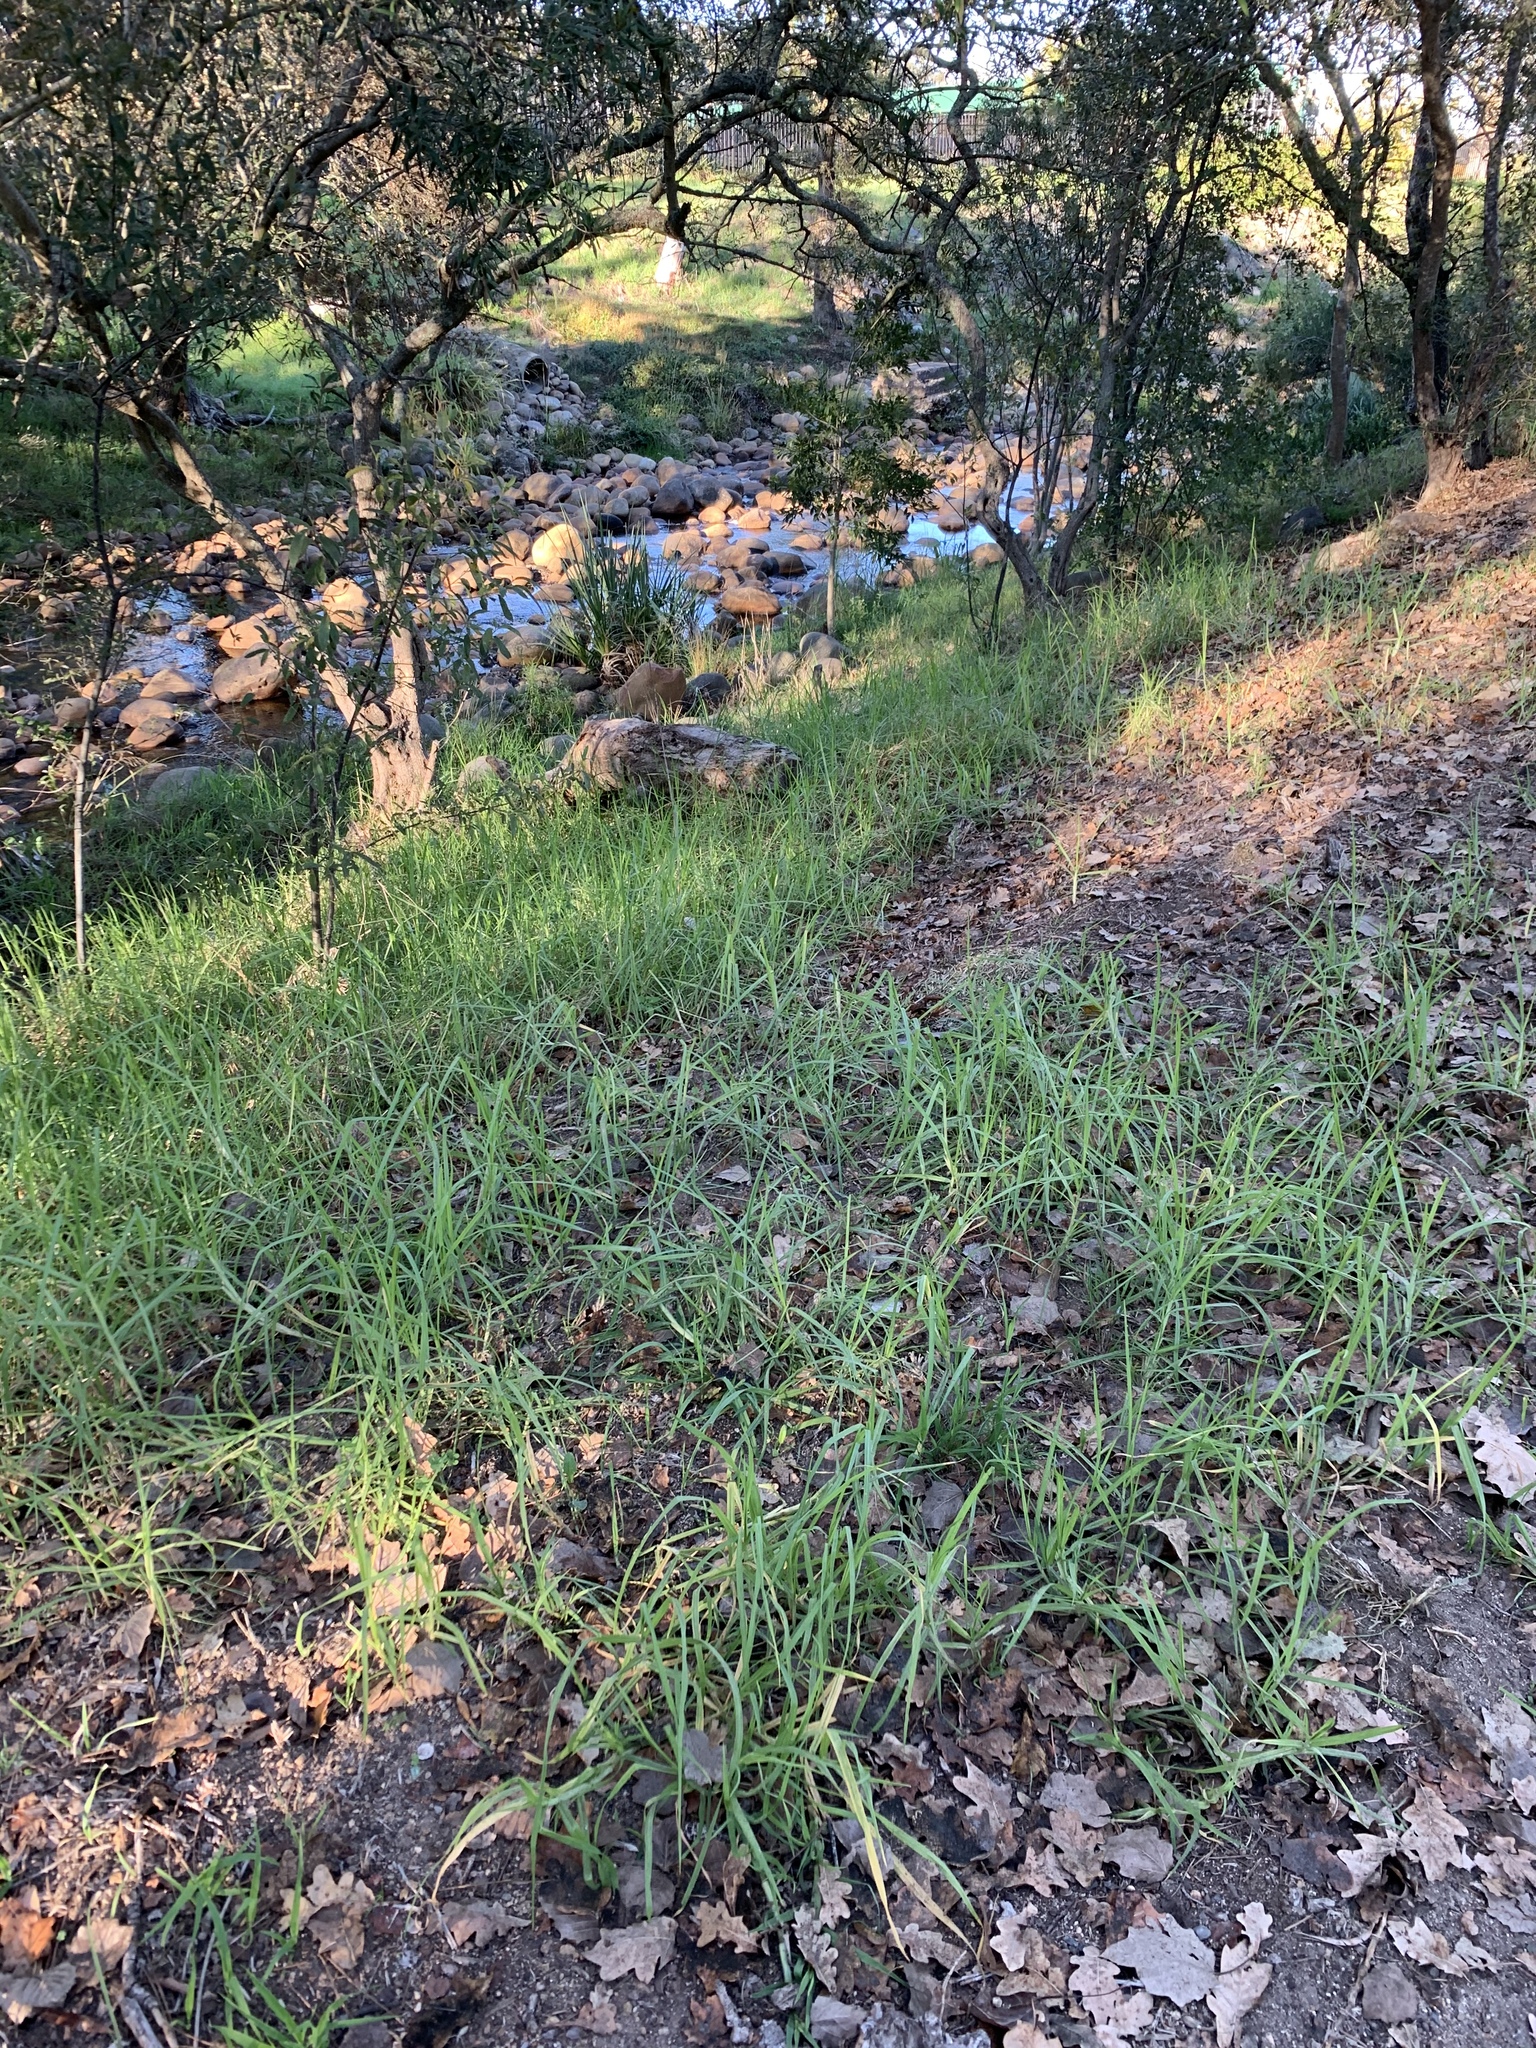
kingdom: Plantae
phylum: Tracheophyta
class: Liliopsida
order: Poales
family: Poaceae
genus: Cenchrus
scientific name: Cenchrus clandestinus
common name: Kikuyugrass
